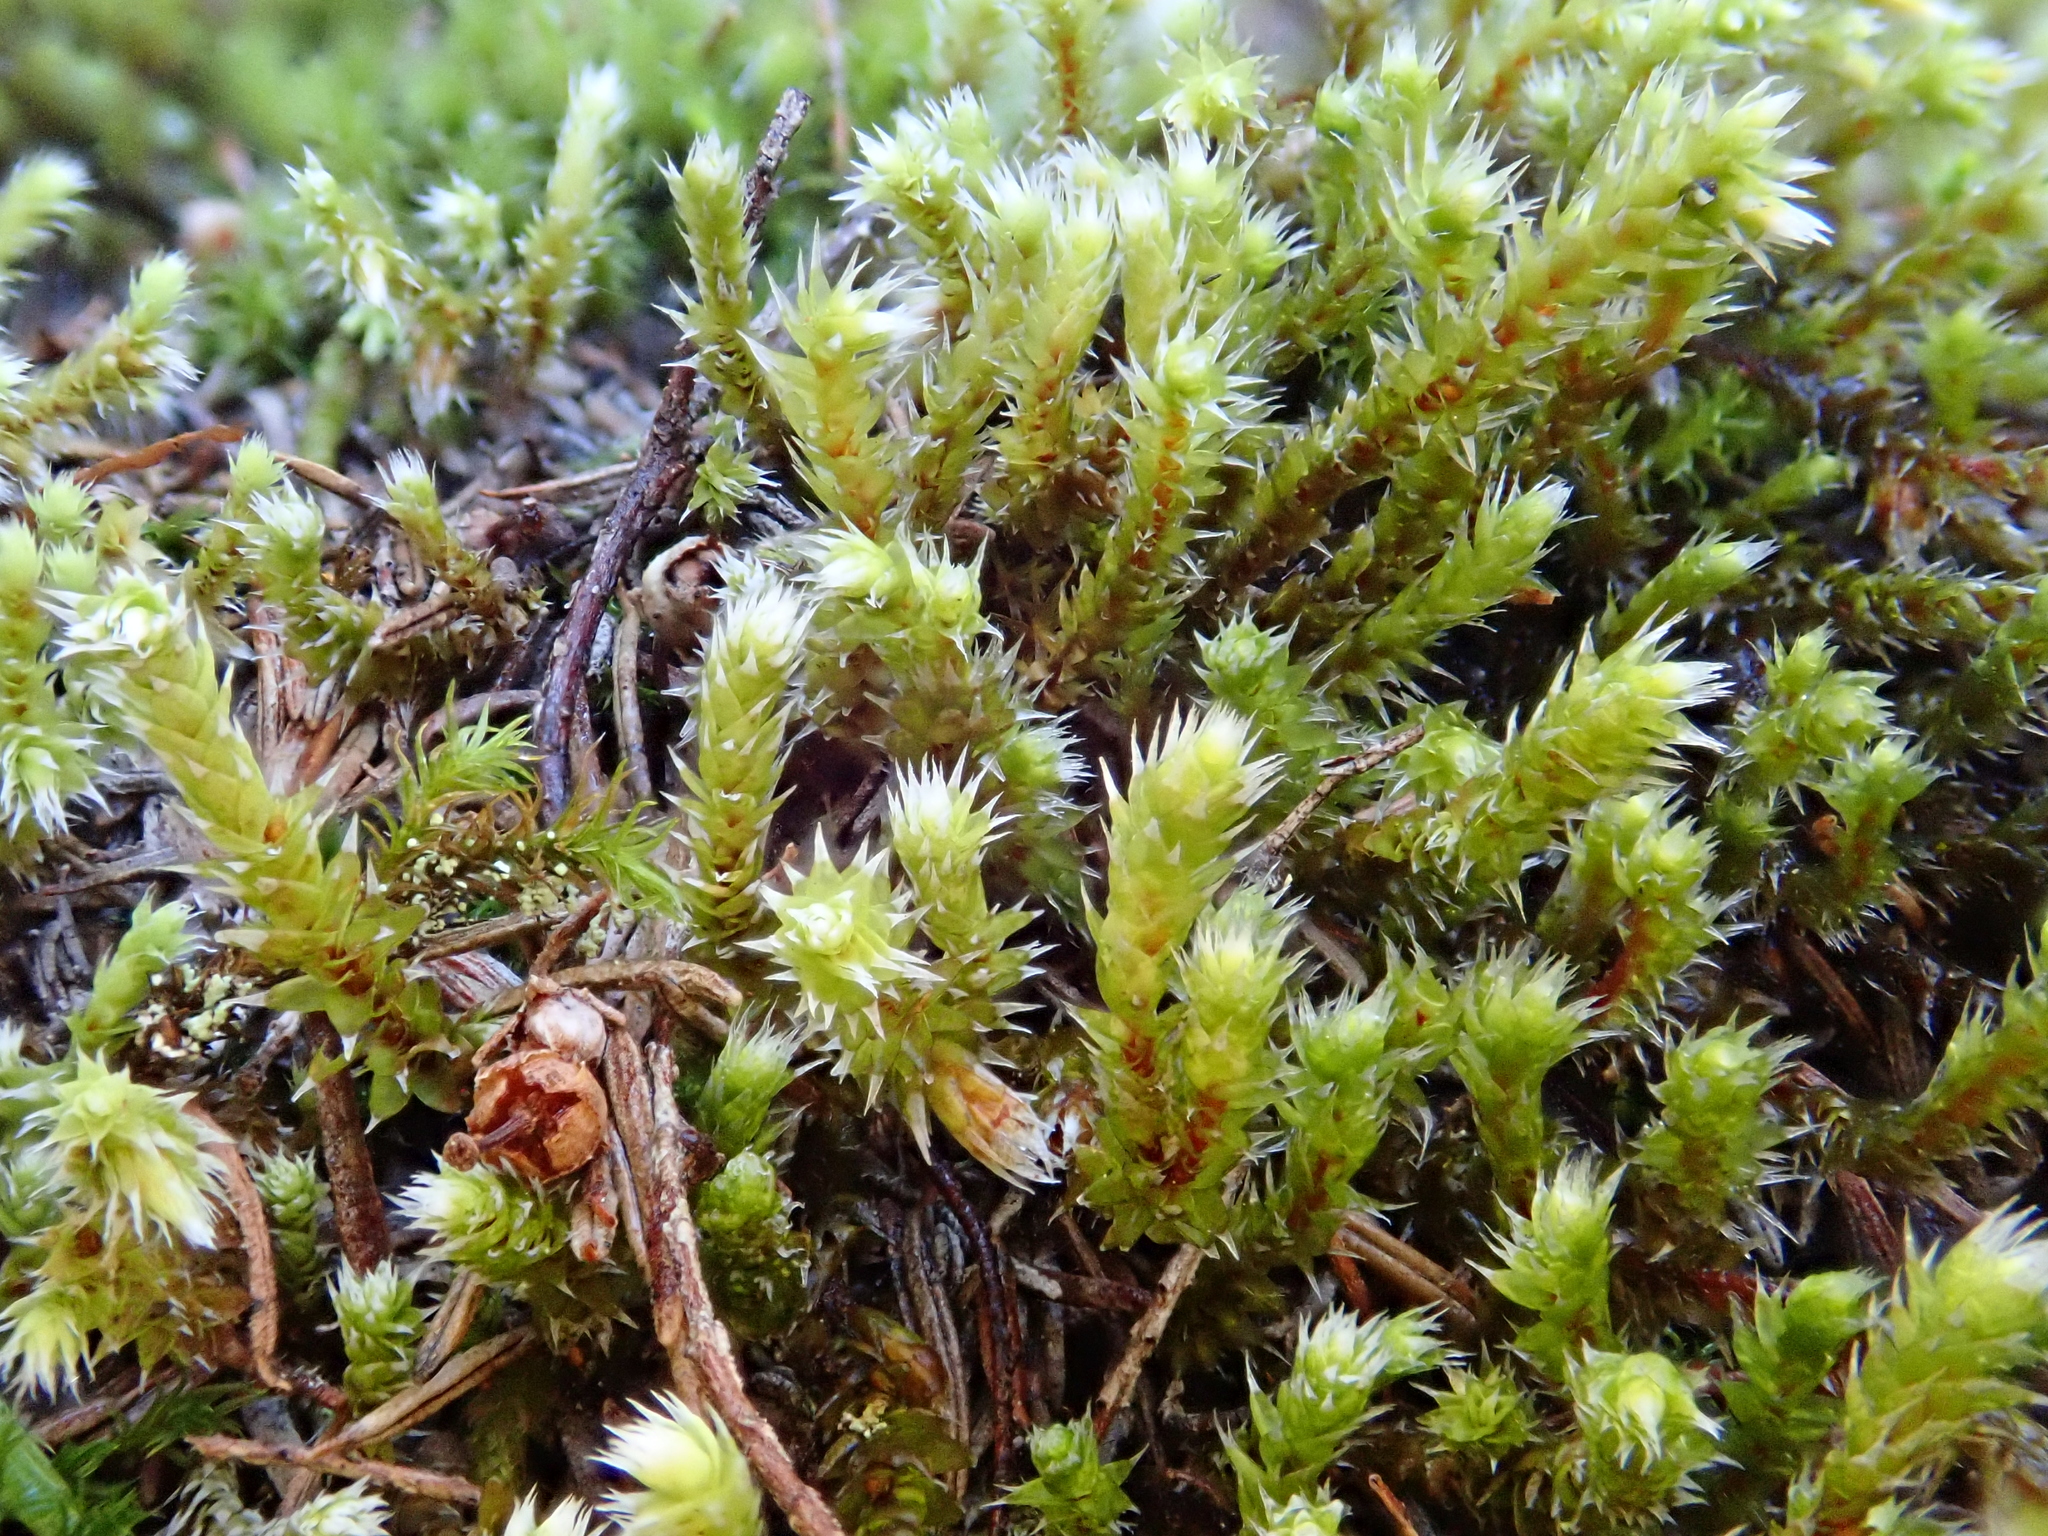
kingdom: Plantae
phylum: Bryophyta
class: Bryopsida
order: Hedwigiales
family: Hedwigiaceae
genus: Hedwigia
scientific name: Hedwigia emodica
